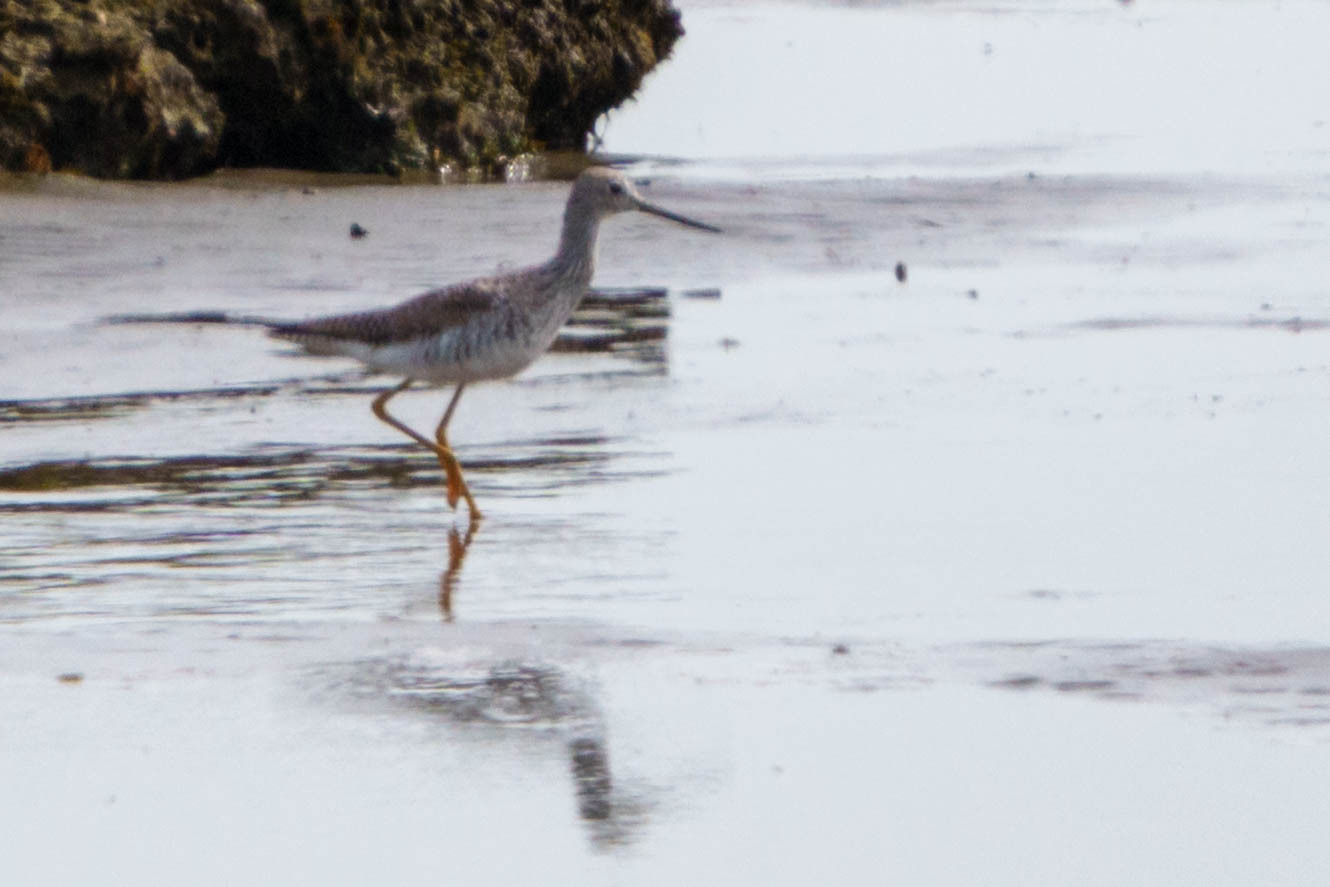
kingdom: Animalia
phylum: Chordata
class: Aves
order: Charadriiformes
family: Scolopacidae
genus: Tringa
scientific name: Tringa melanoleuca
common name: Greater yellowlegs
